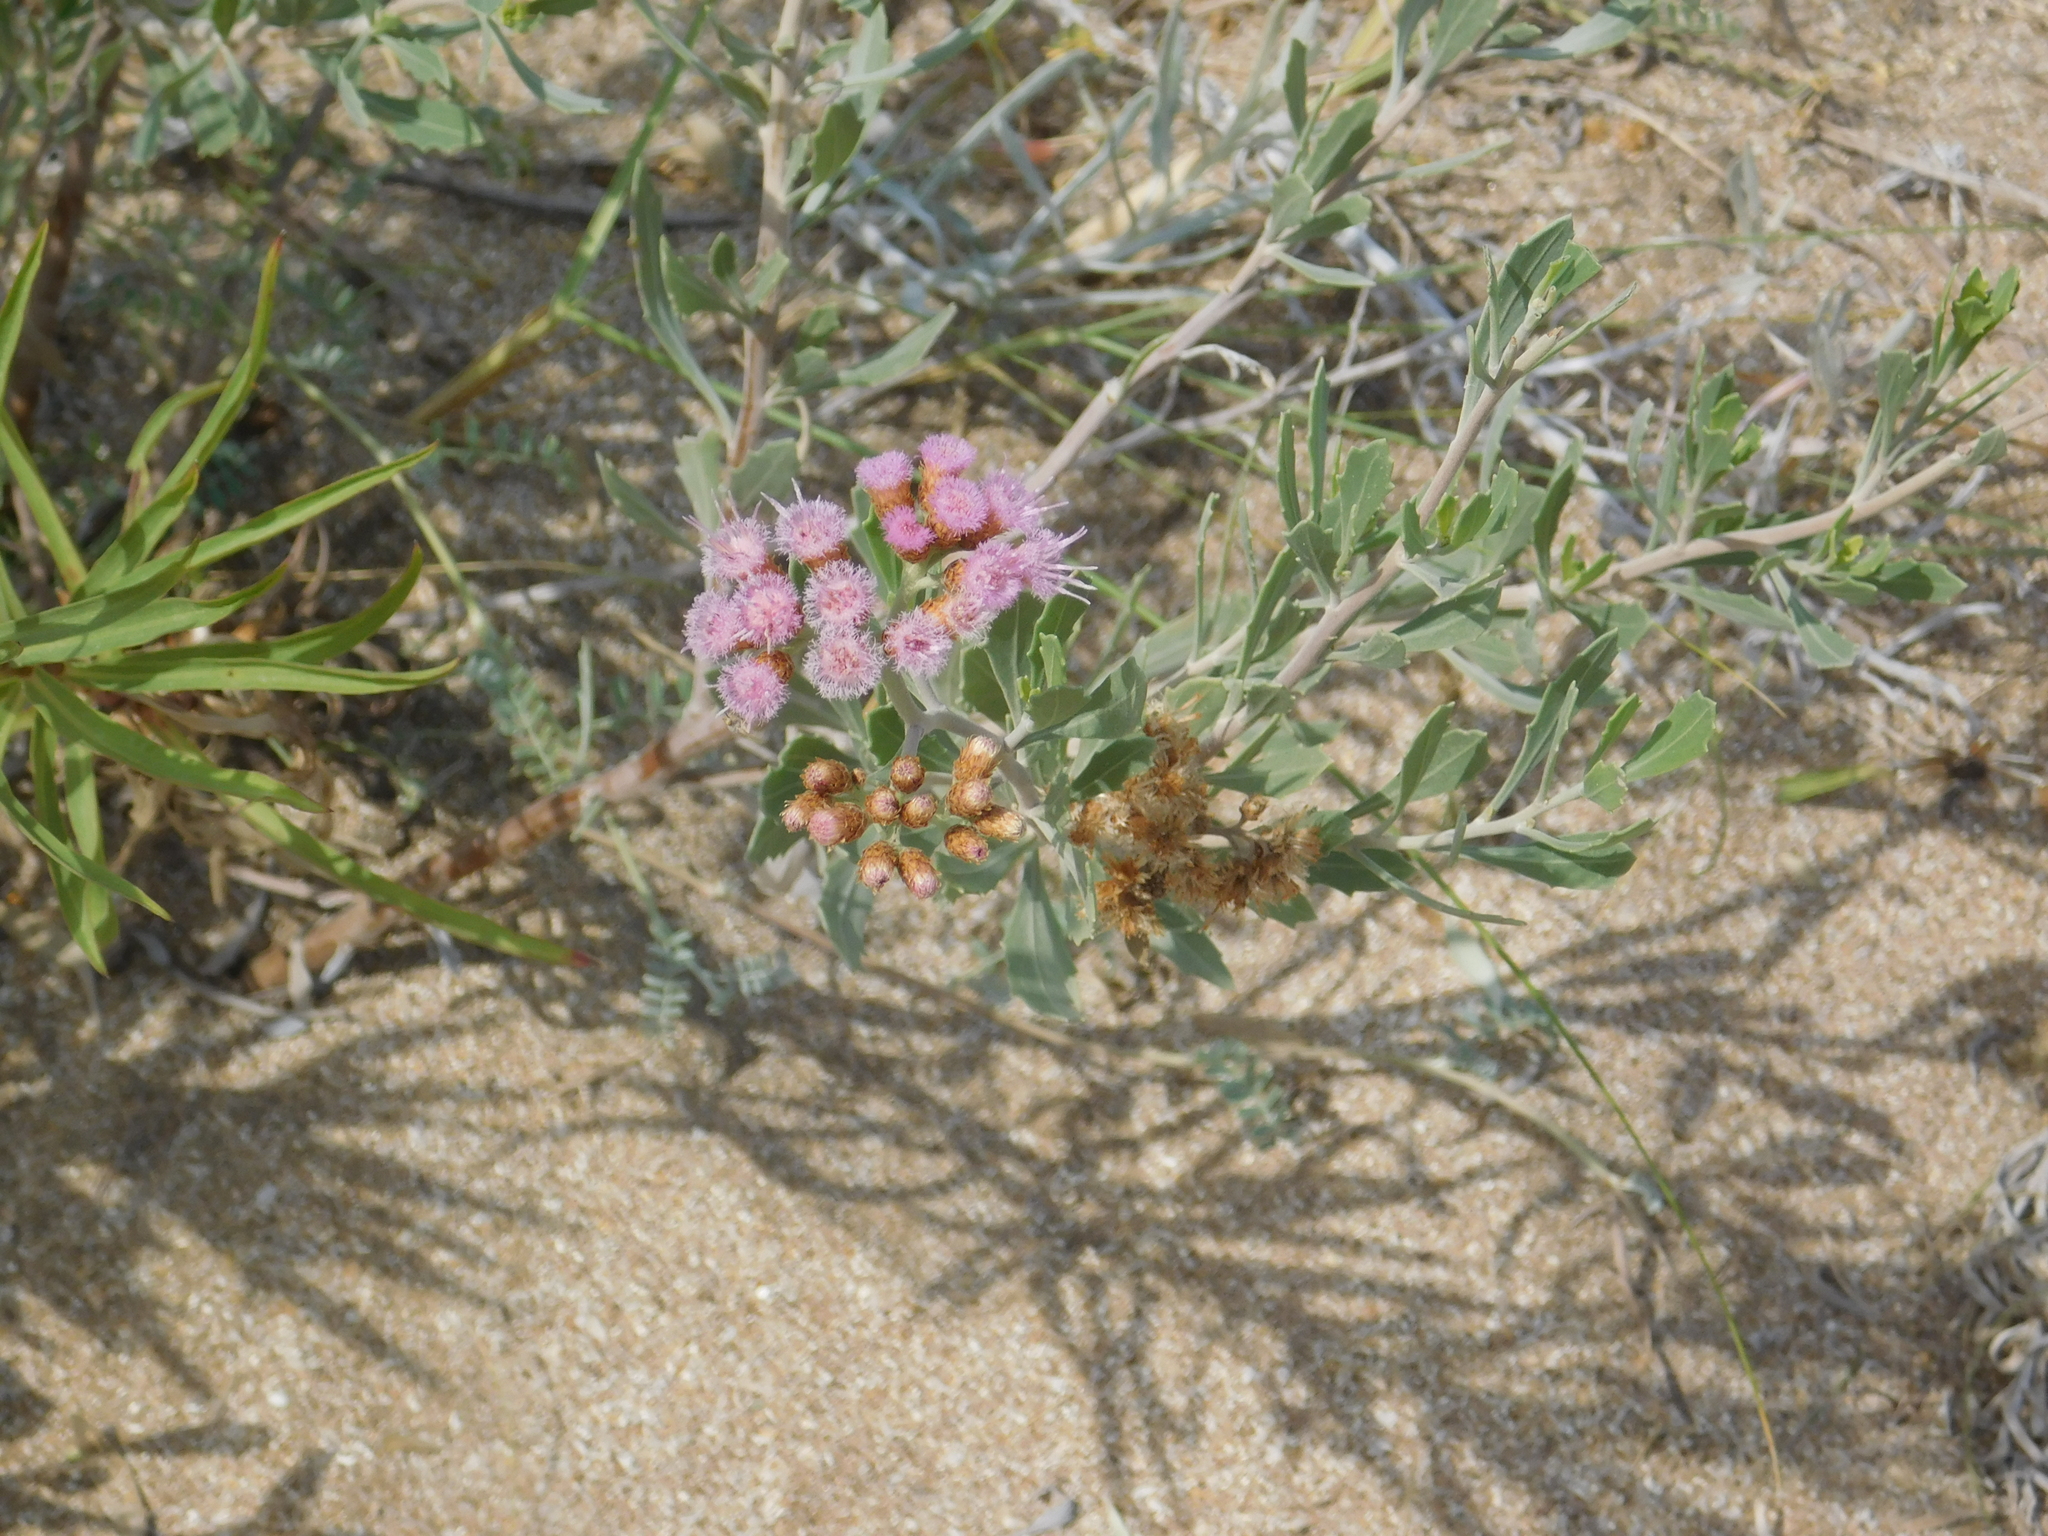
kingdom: Plantae
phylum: Tracheophyta
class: Magnoliopsida
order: Asterales
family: Asteraceae
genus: Tessaria
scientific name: Tessaria absinthioides
